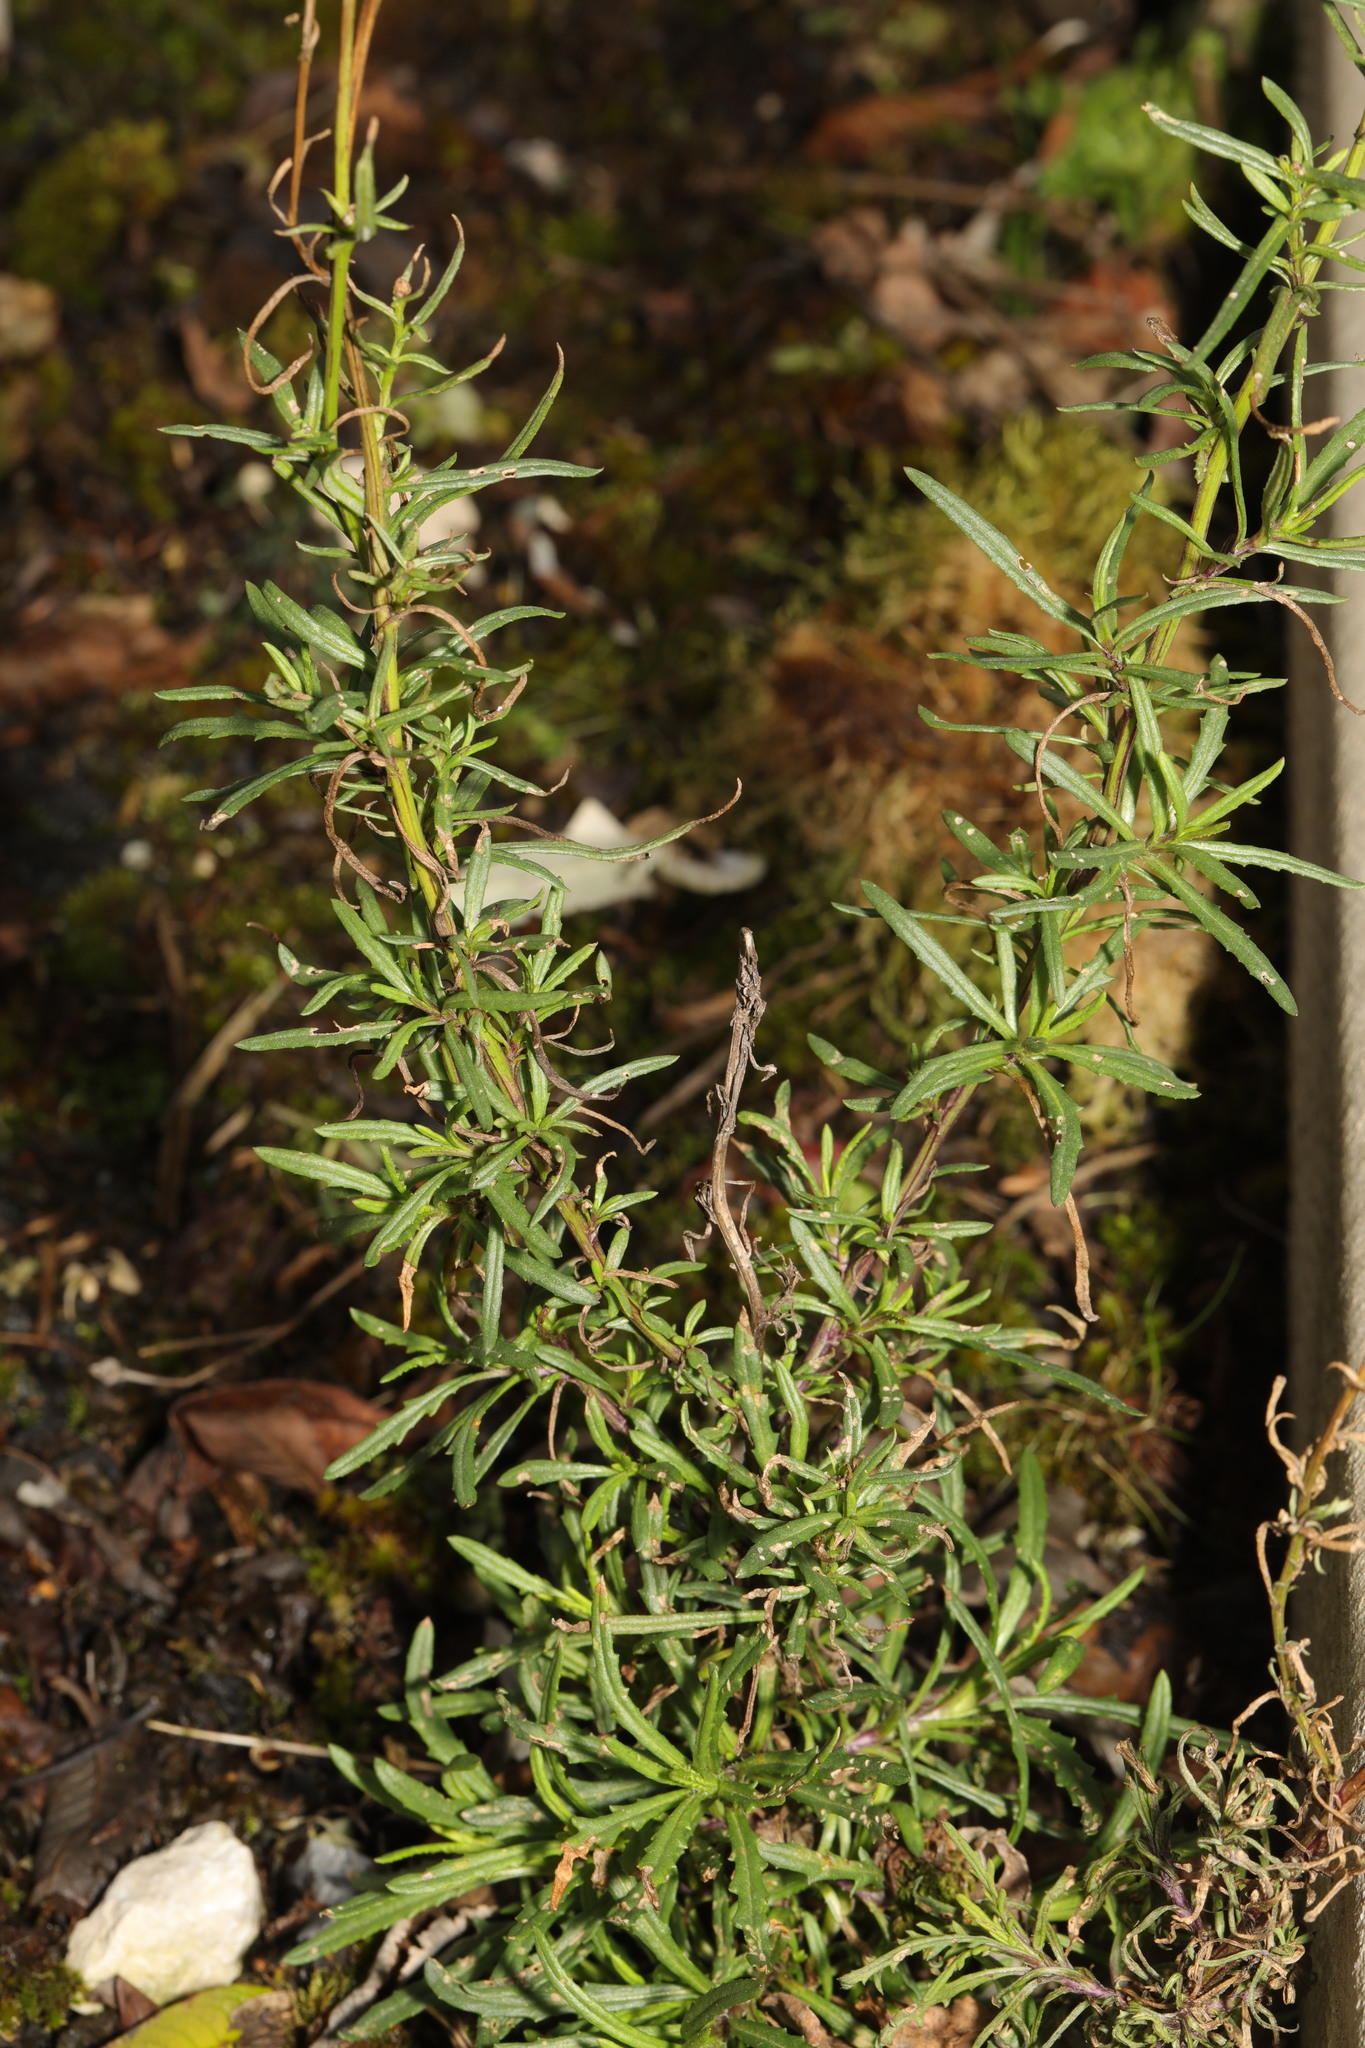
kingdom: Plantae
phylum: Tracheophyta
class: Magnoliopsida
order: Asterales
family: Asteraceae
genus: Senecio
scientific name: Senecio inaequidens
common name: Narrow-leaved ragwort
